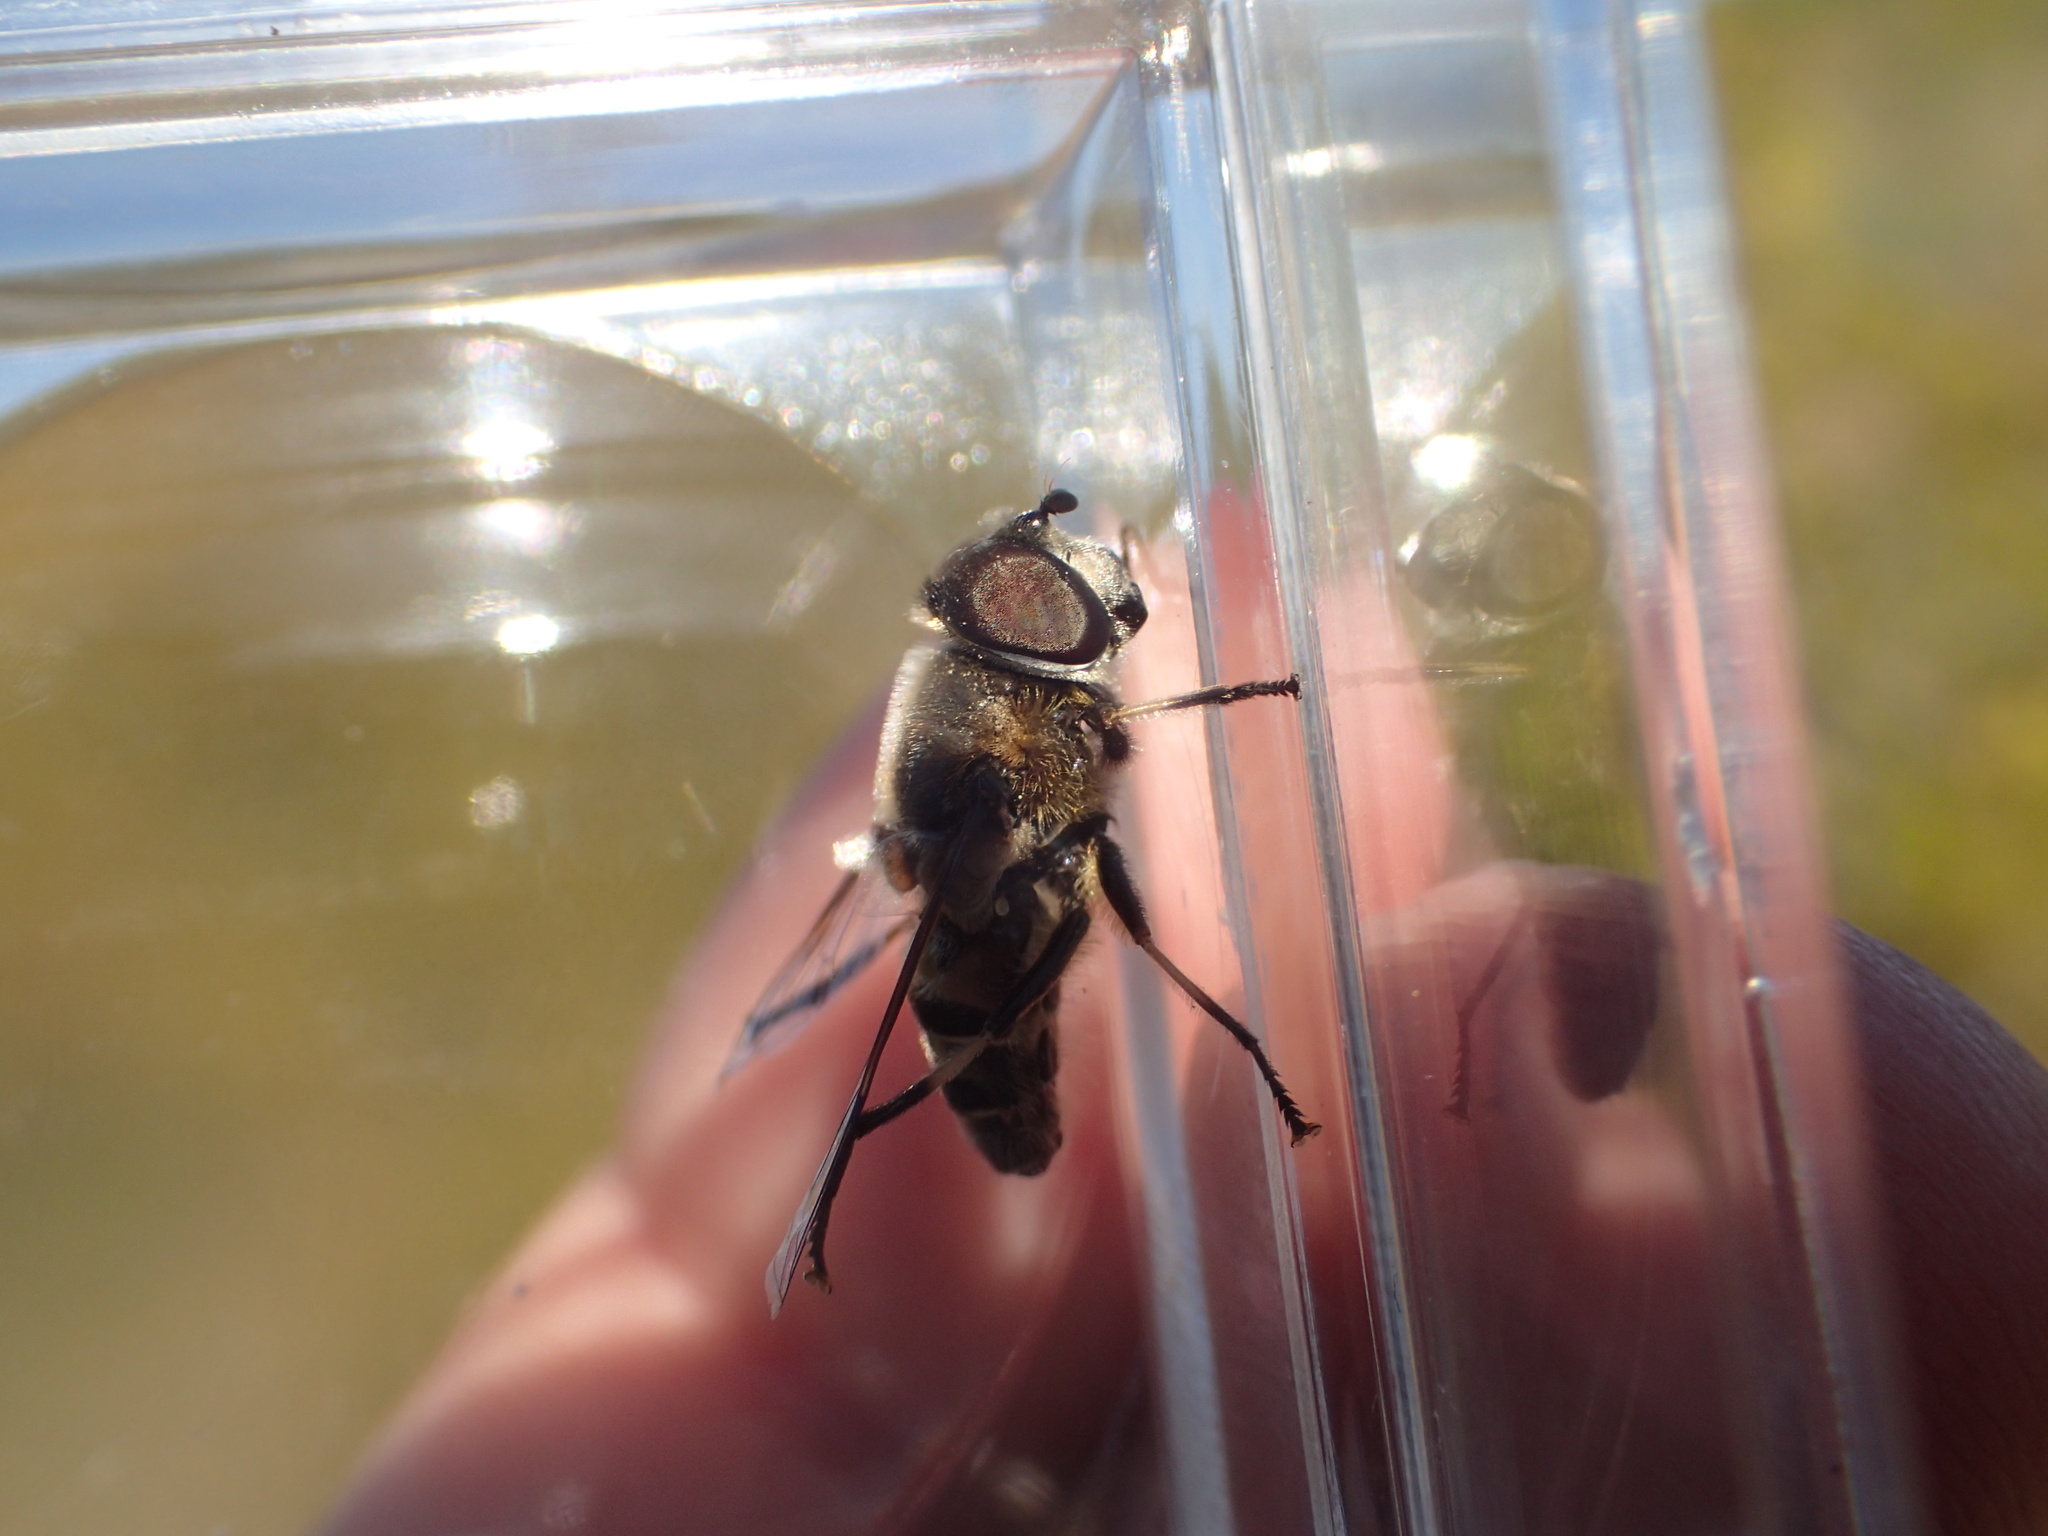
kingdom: Animalia
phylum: Arthropoda
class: Insecta
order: Diptera
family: Syrphidae
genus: Eristalis
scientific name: Eristalis dimidiata
